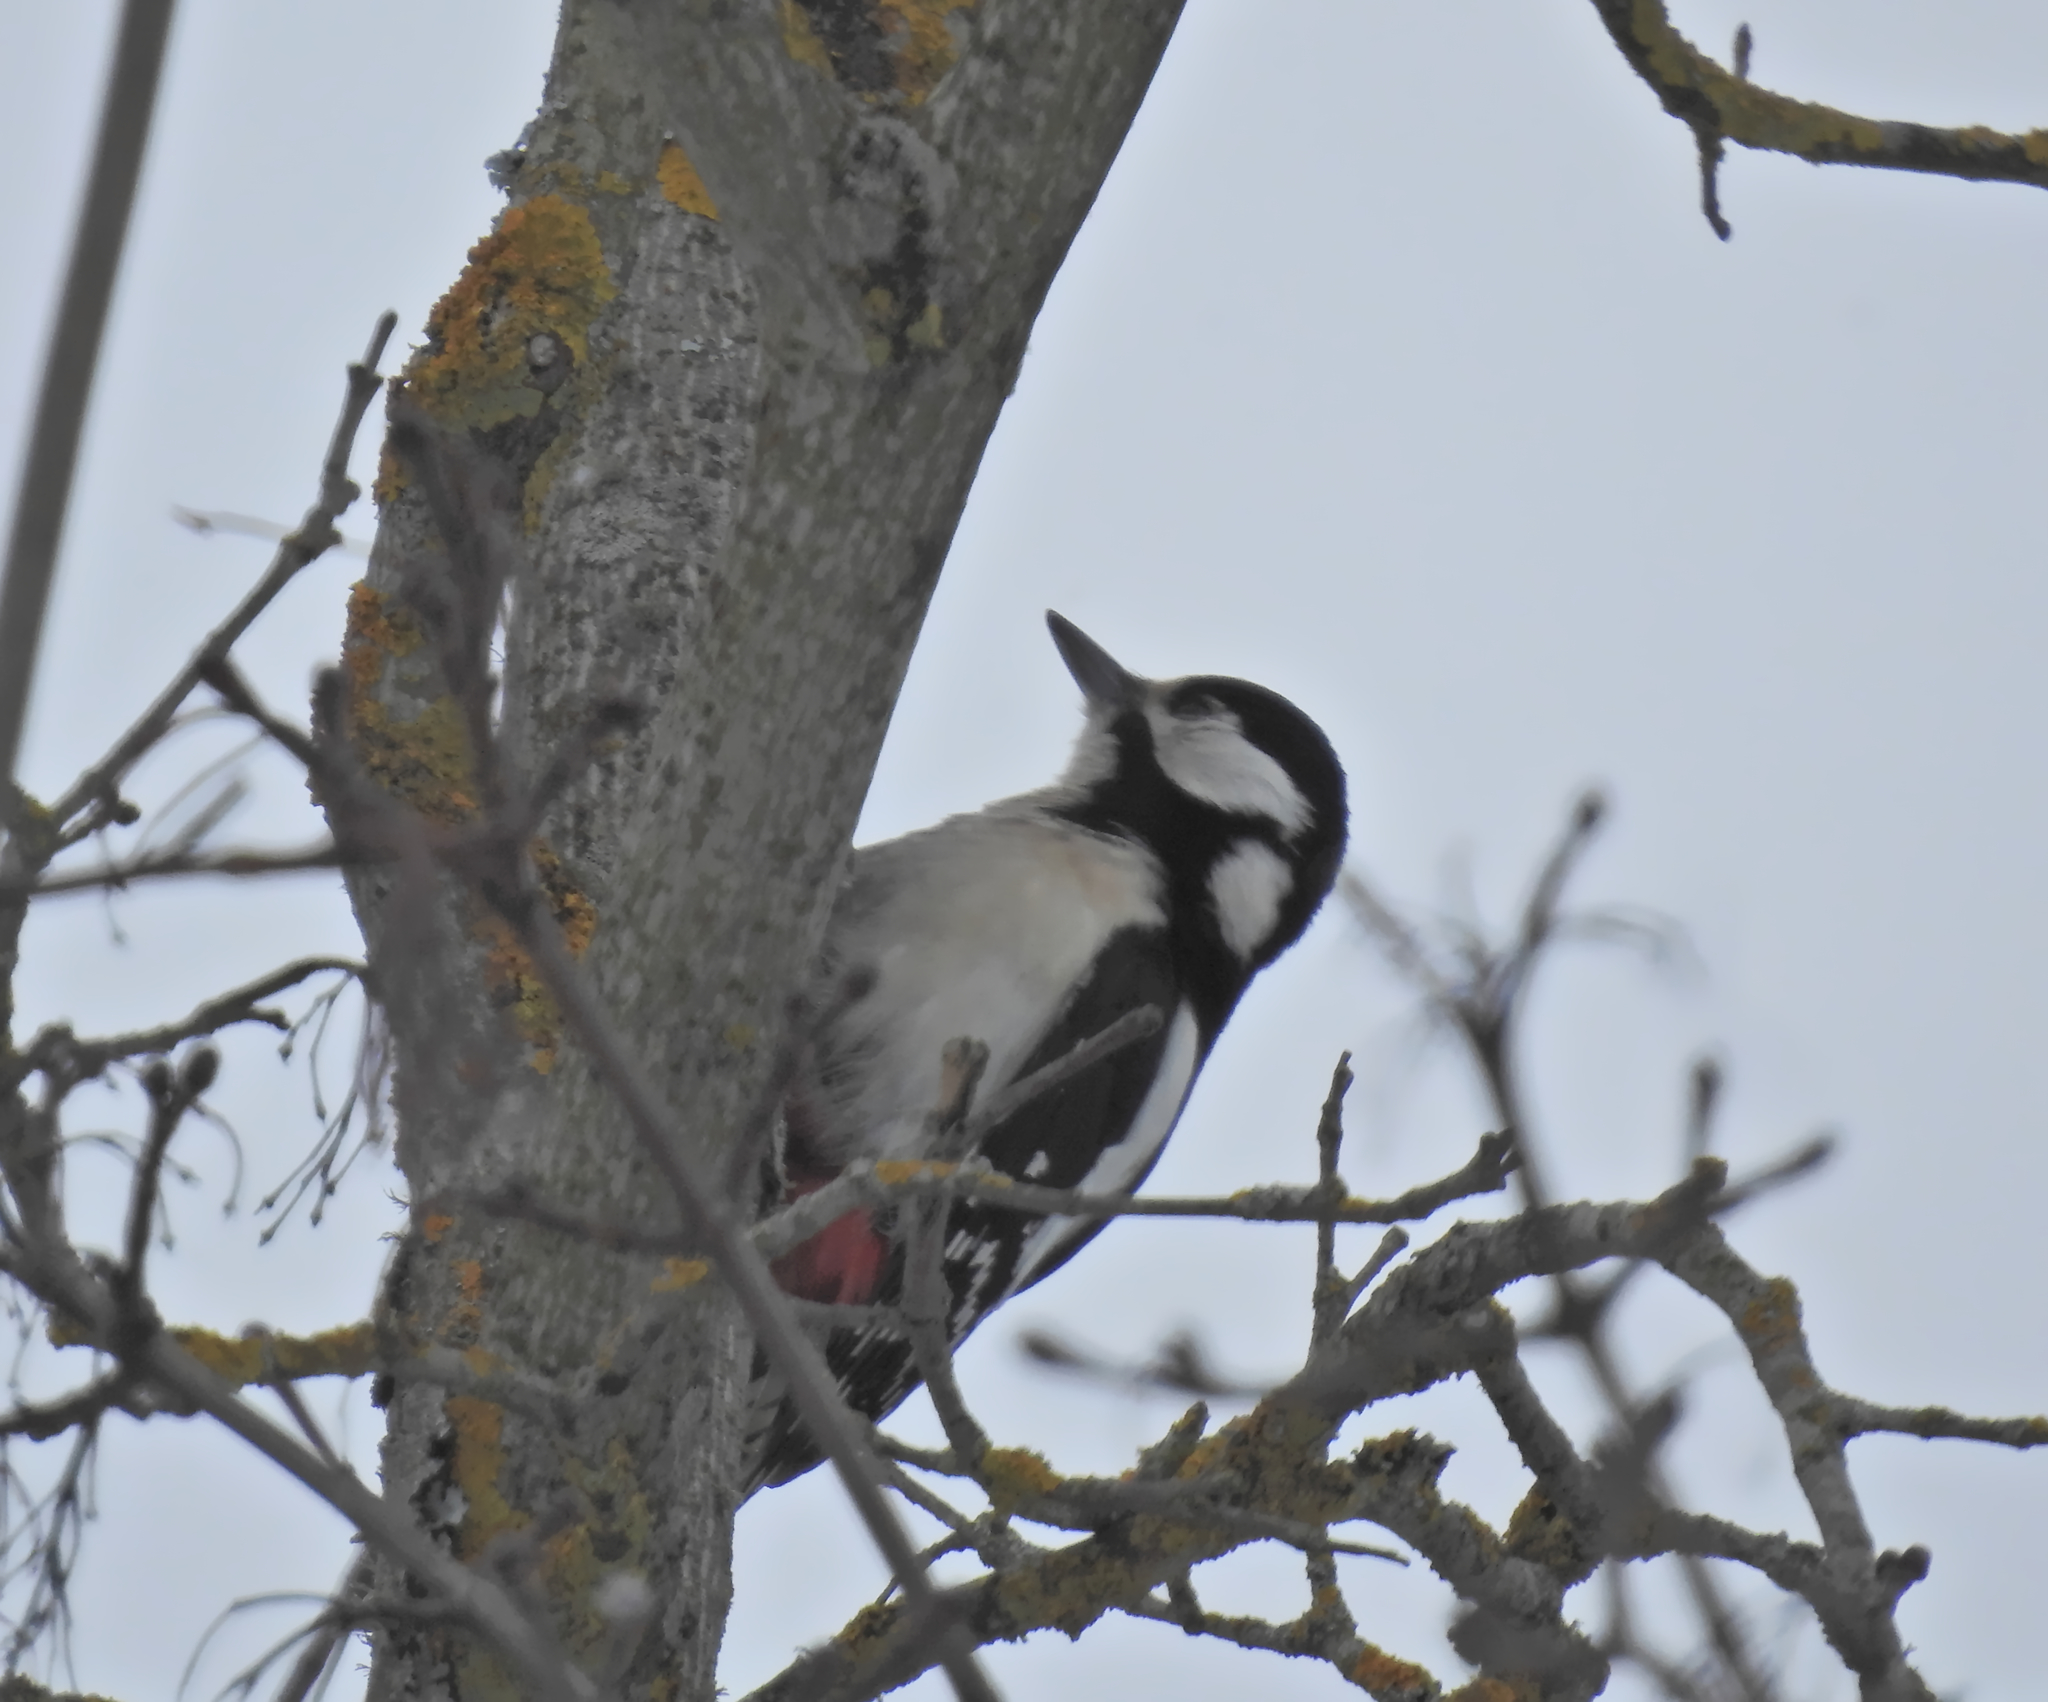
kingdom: Animalia
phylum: Chordata
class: Aves
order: Piciformes
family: Picidae
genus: Dendrocopos
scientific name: Dendrocopos major
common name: Great spotted woodpecker
